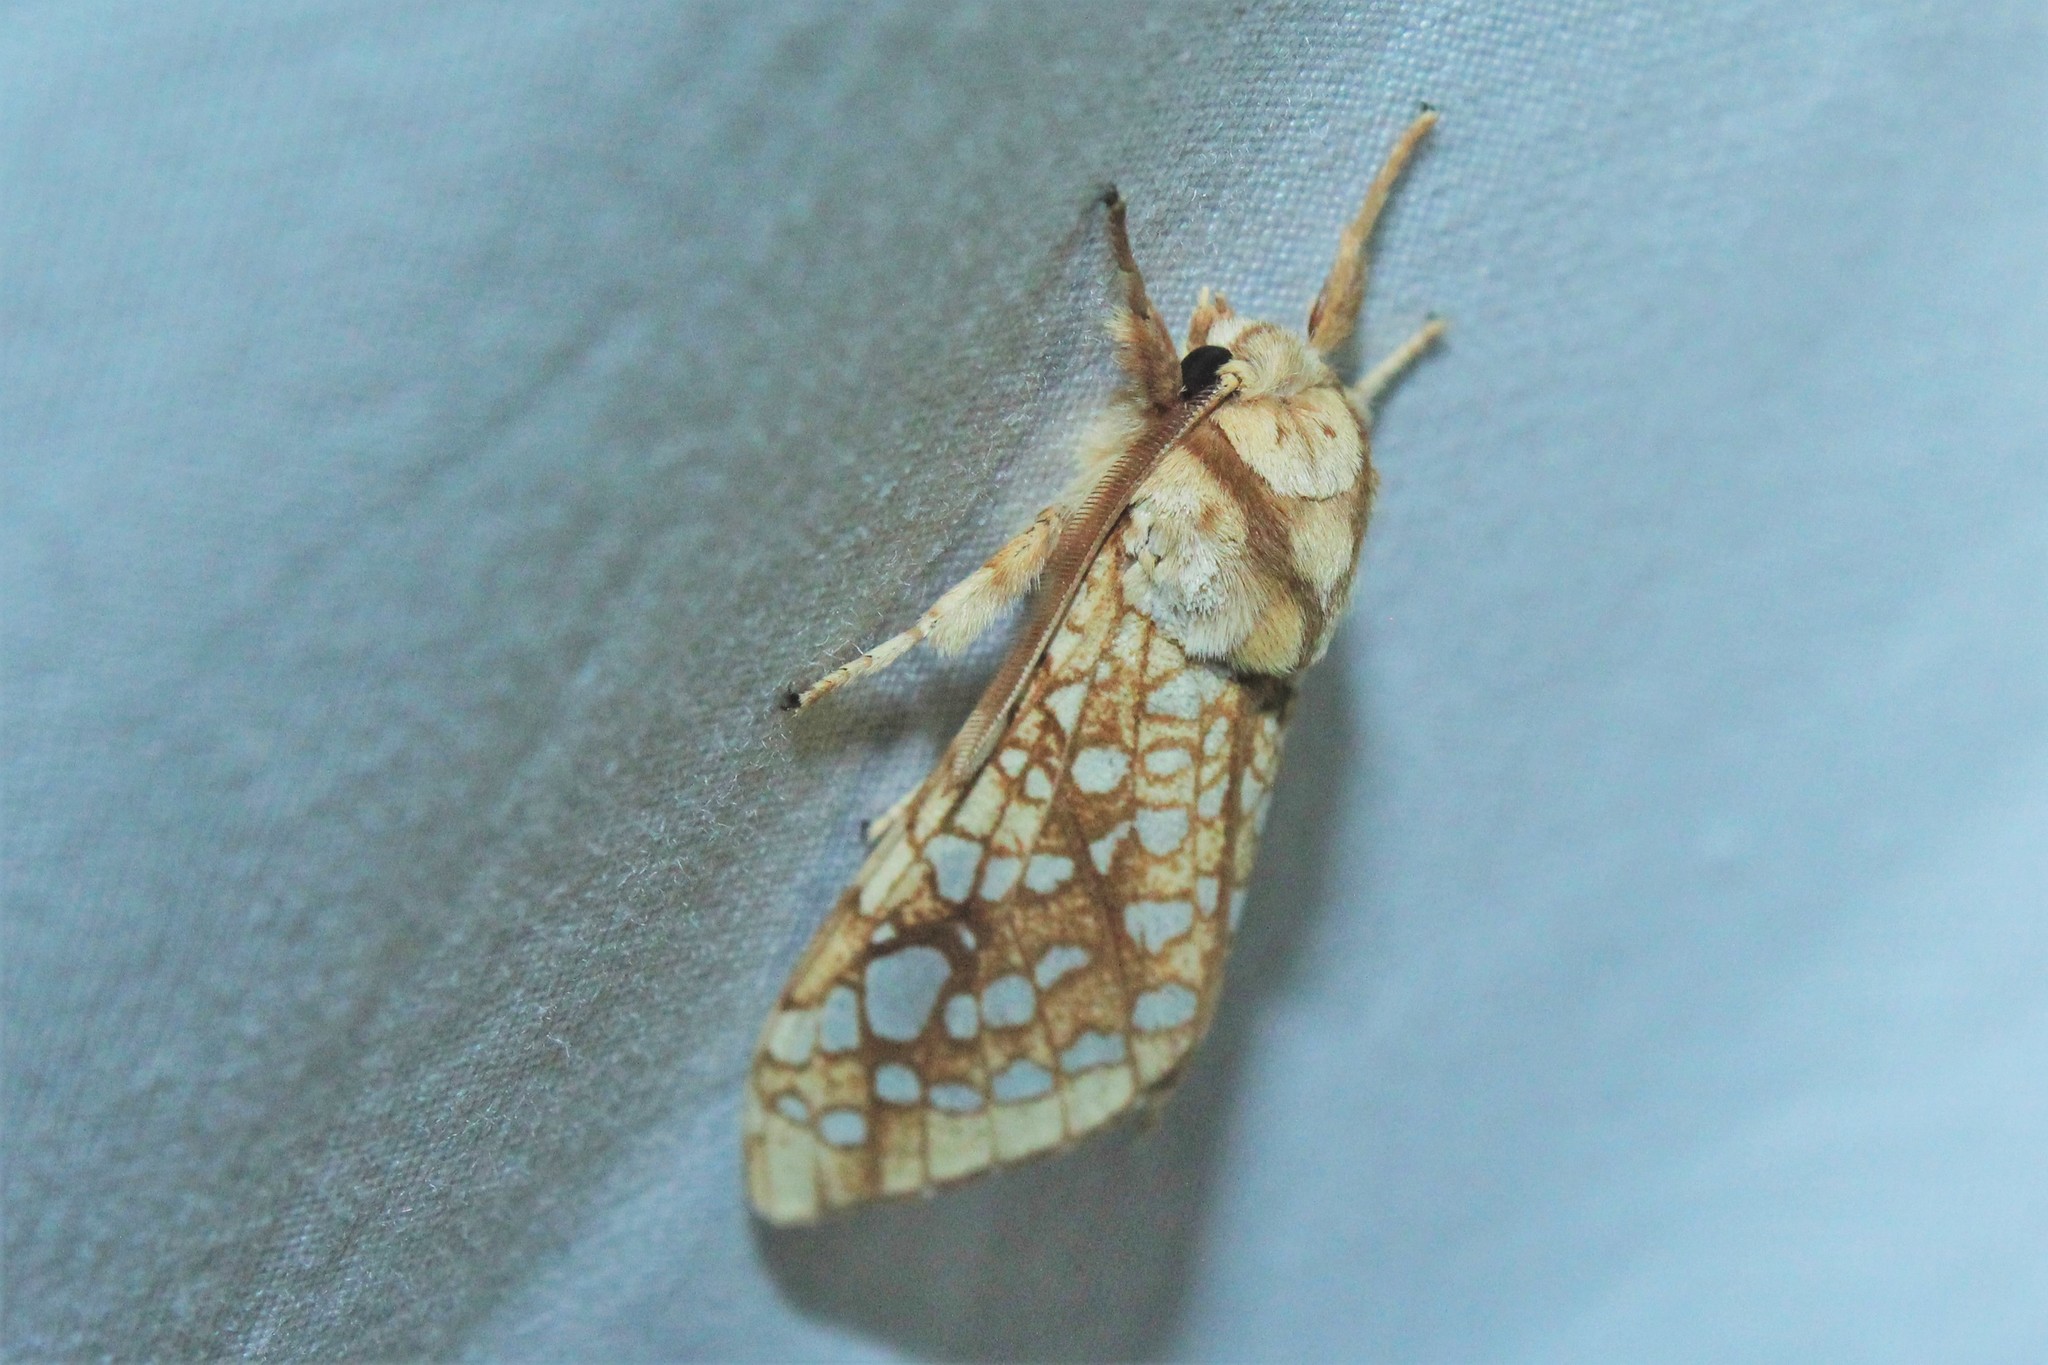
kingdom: Animalia
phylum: Arthropoda
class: Insecta
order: Lepidoptera
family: Erebidae
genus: Lophocampa
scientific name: Lophocampa caryae
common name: Hickory tussock moth
